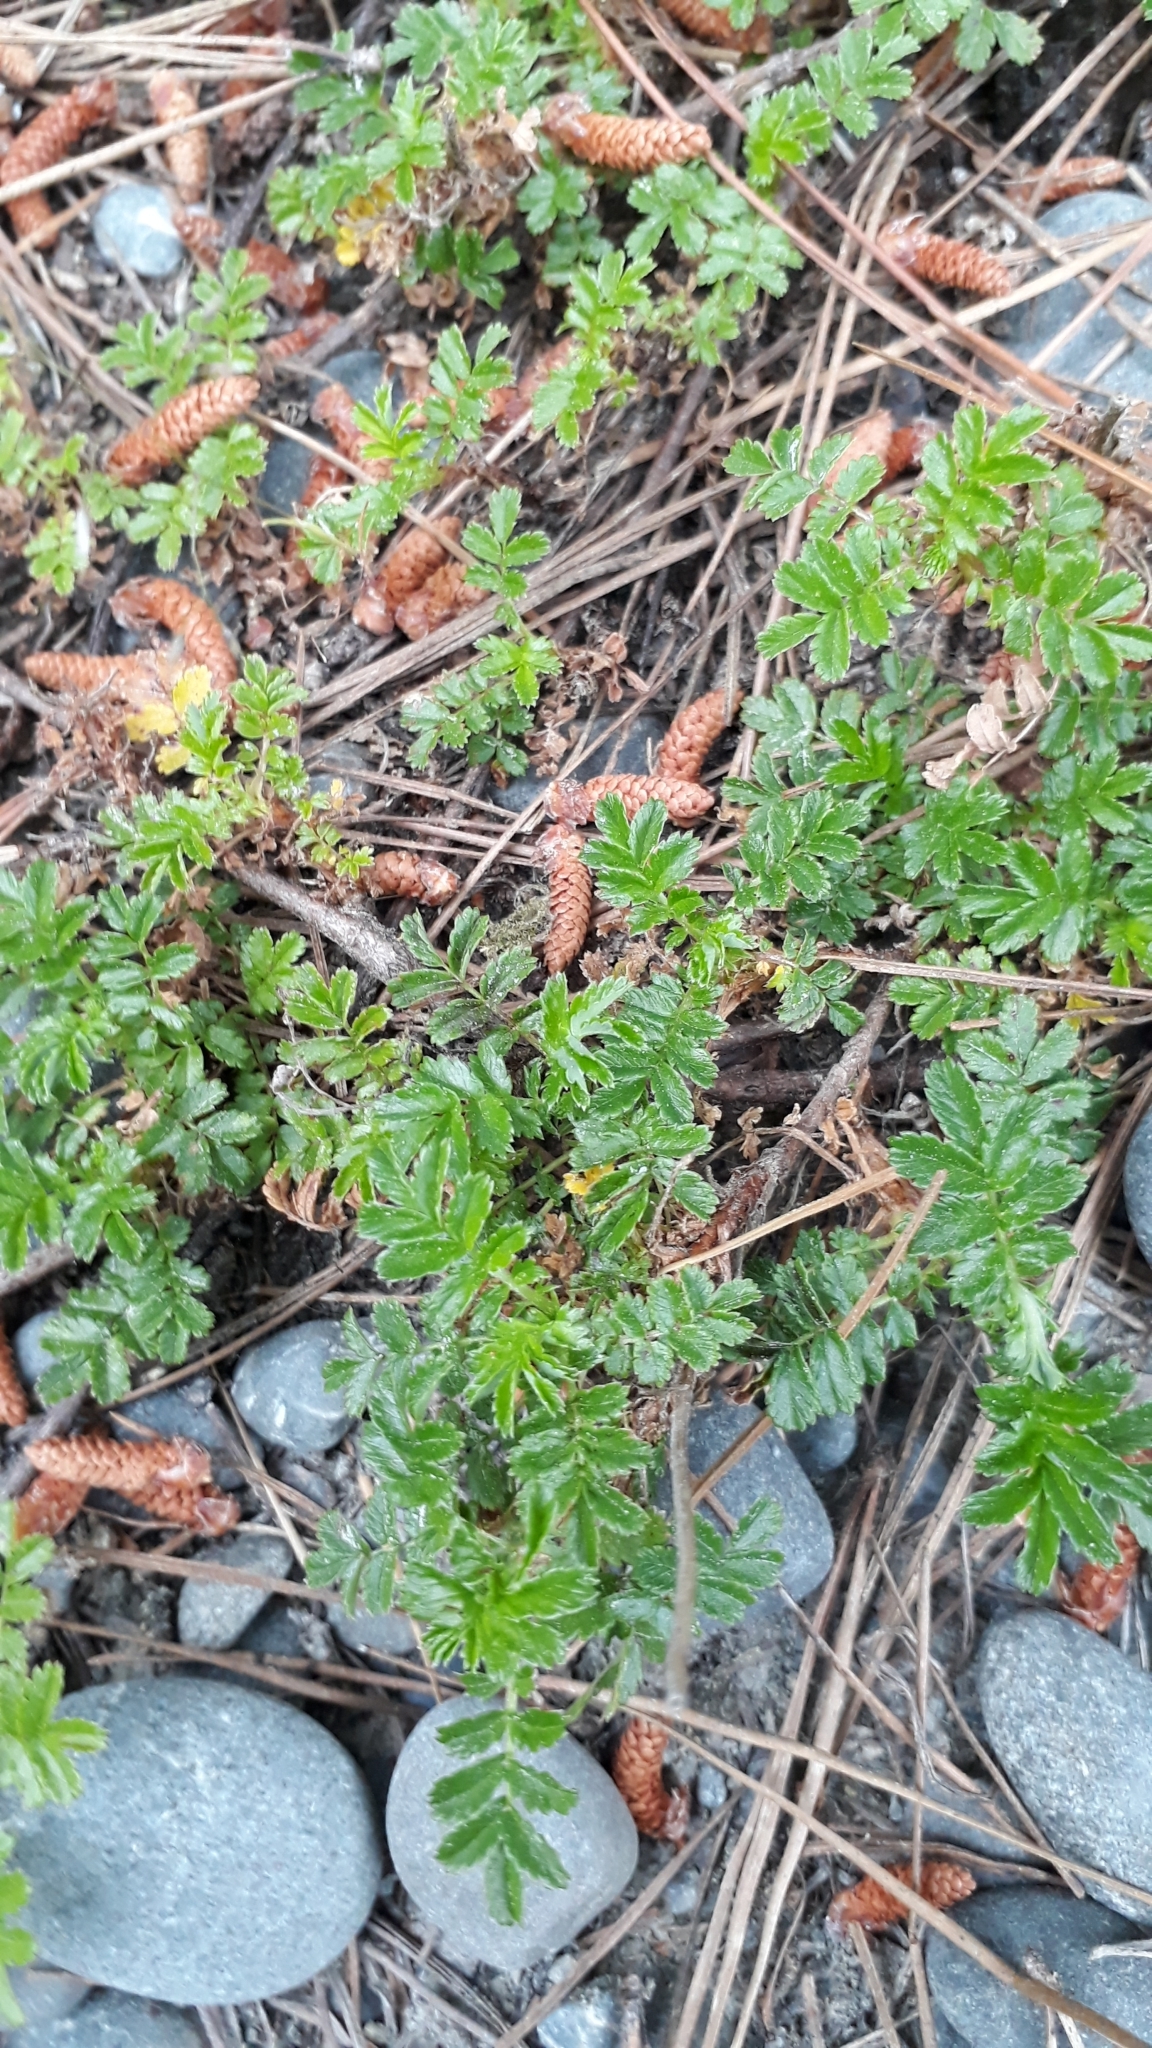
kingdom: Plantae
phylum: Tracheophyta
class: Magnoliopsida
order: Rosales
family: Rosaceae
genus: Acaena
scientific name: Acaena novae-zelandiae
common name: Pirri-pirri-bur
